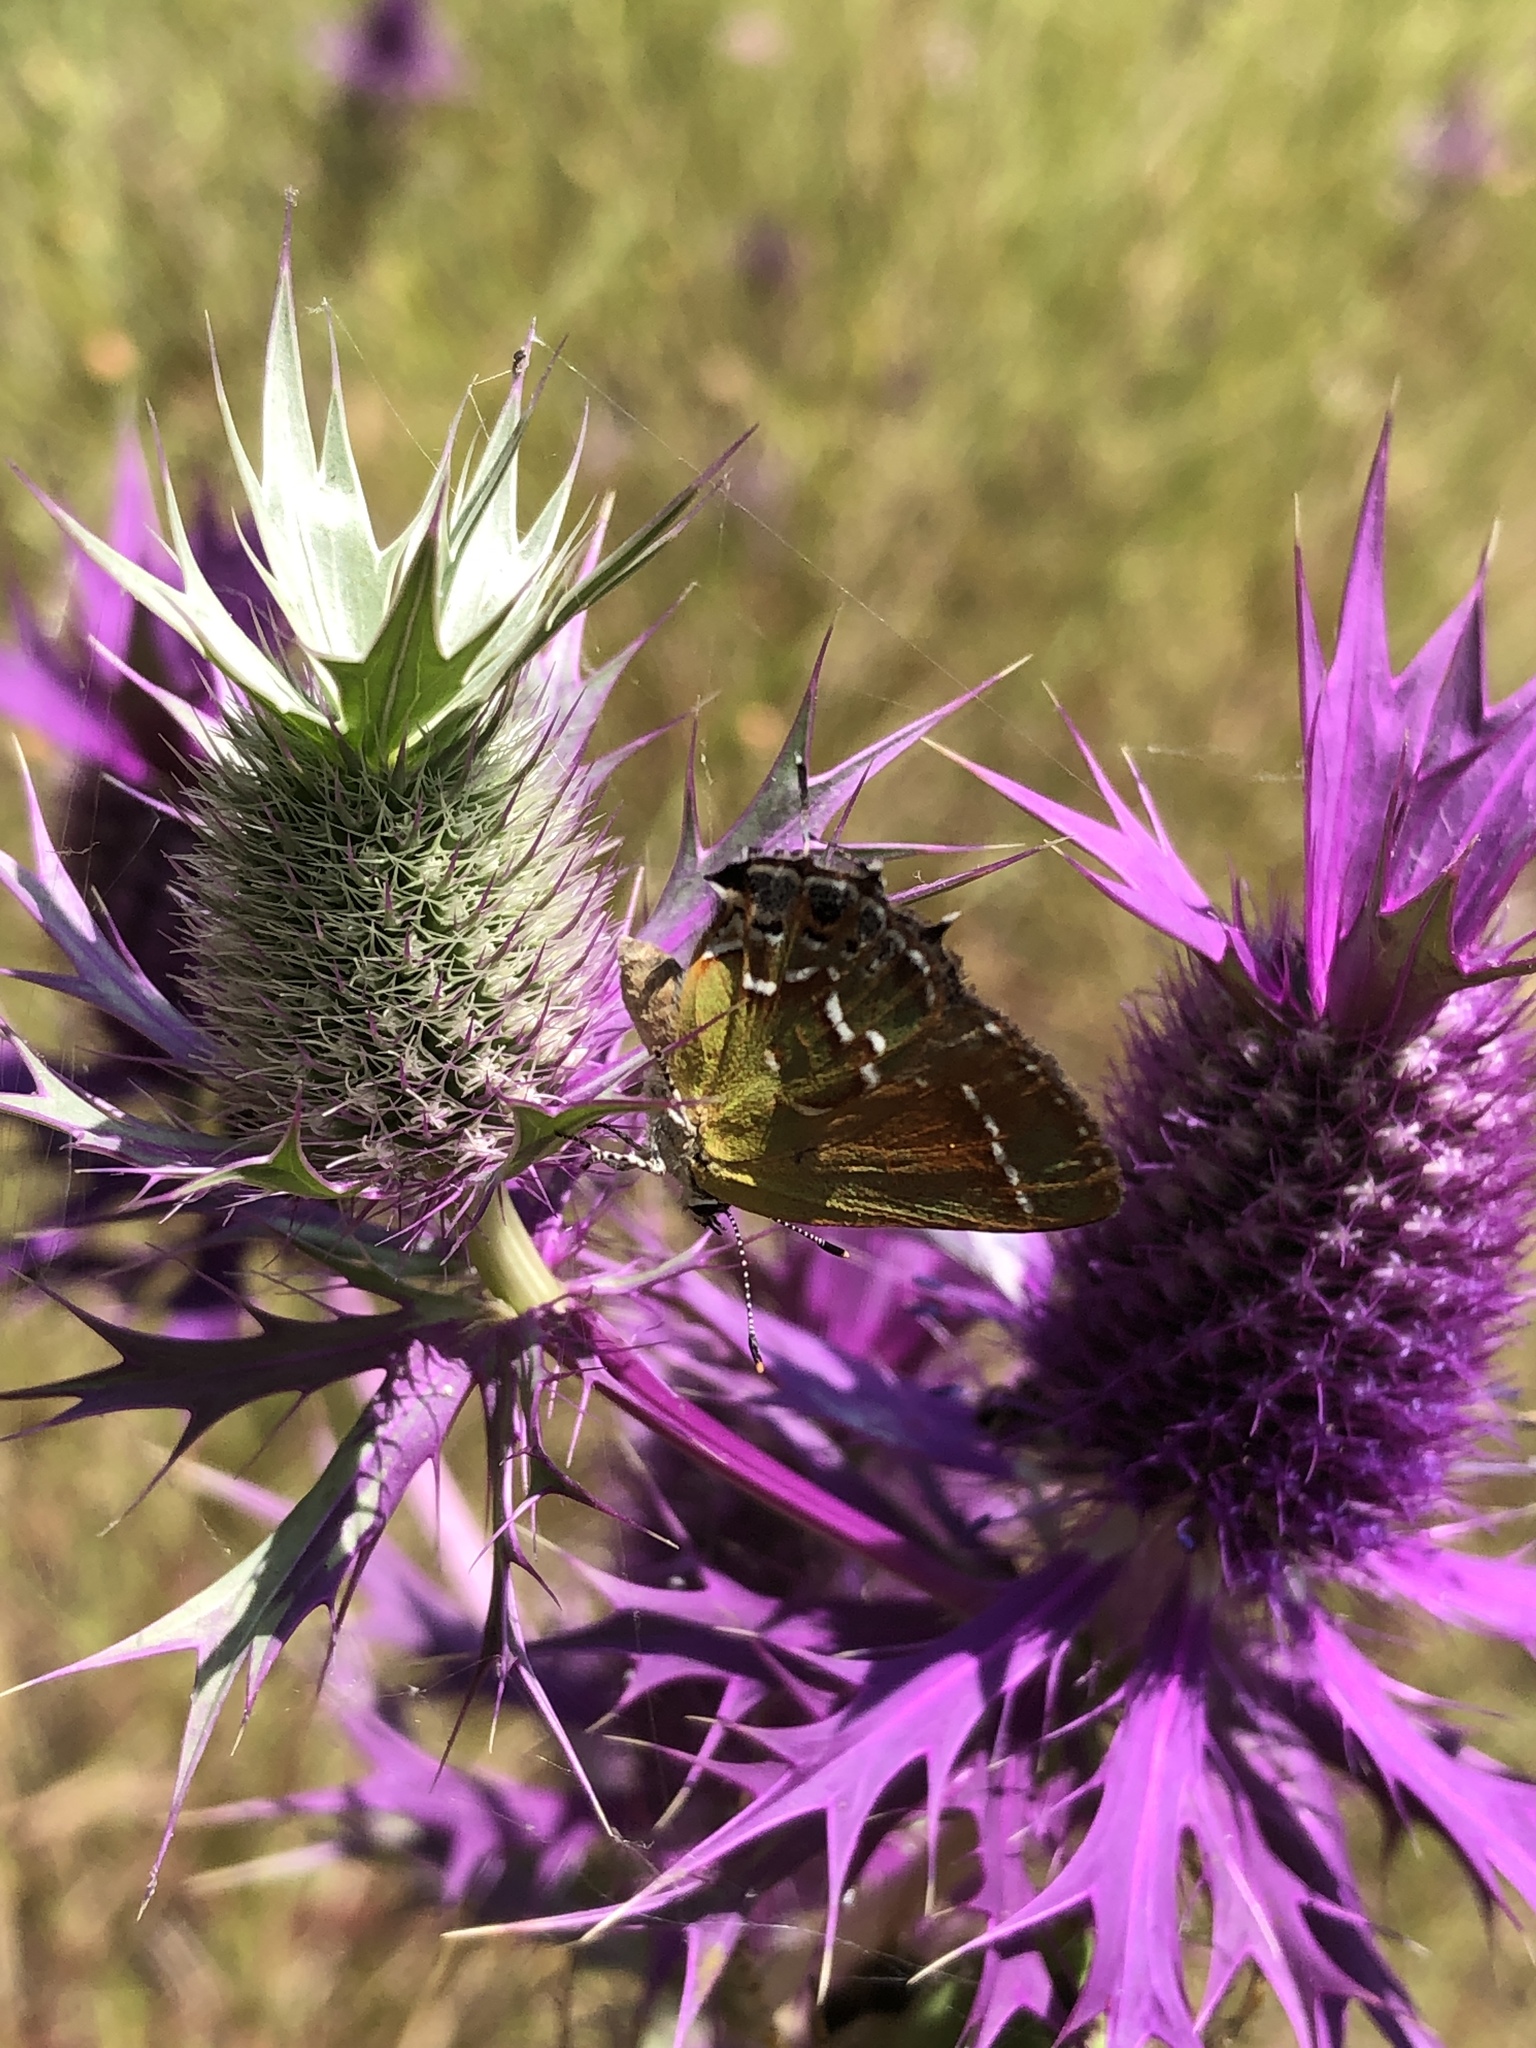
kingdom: Animalia
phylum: Arthropoda
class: Insecta
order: Lepidoptera
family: Lycaenidae
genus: Mitoura
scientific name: Mitoura gryneus
